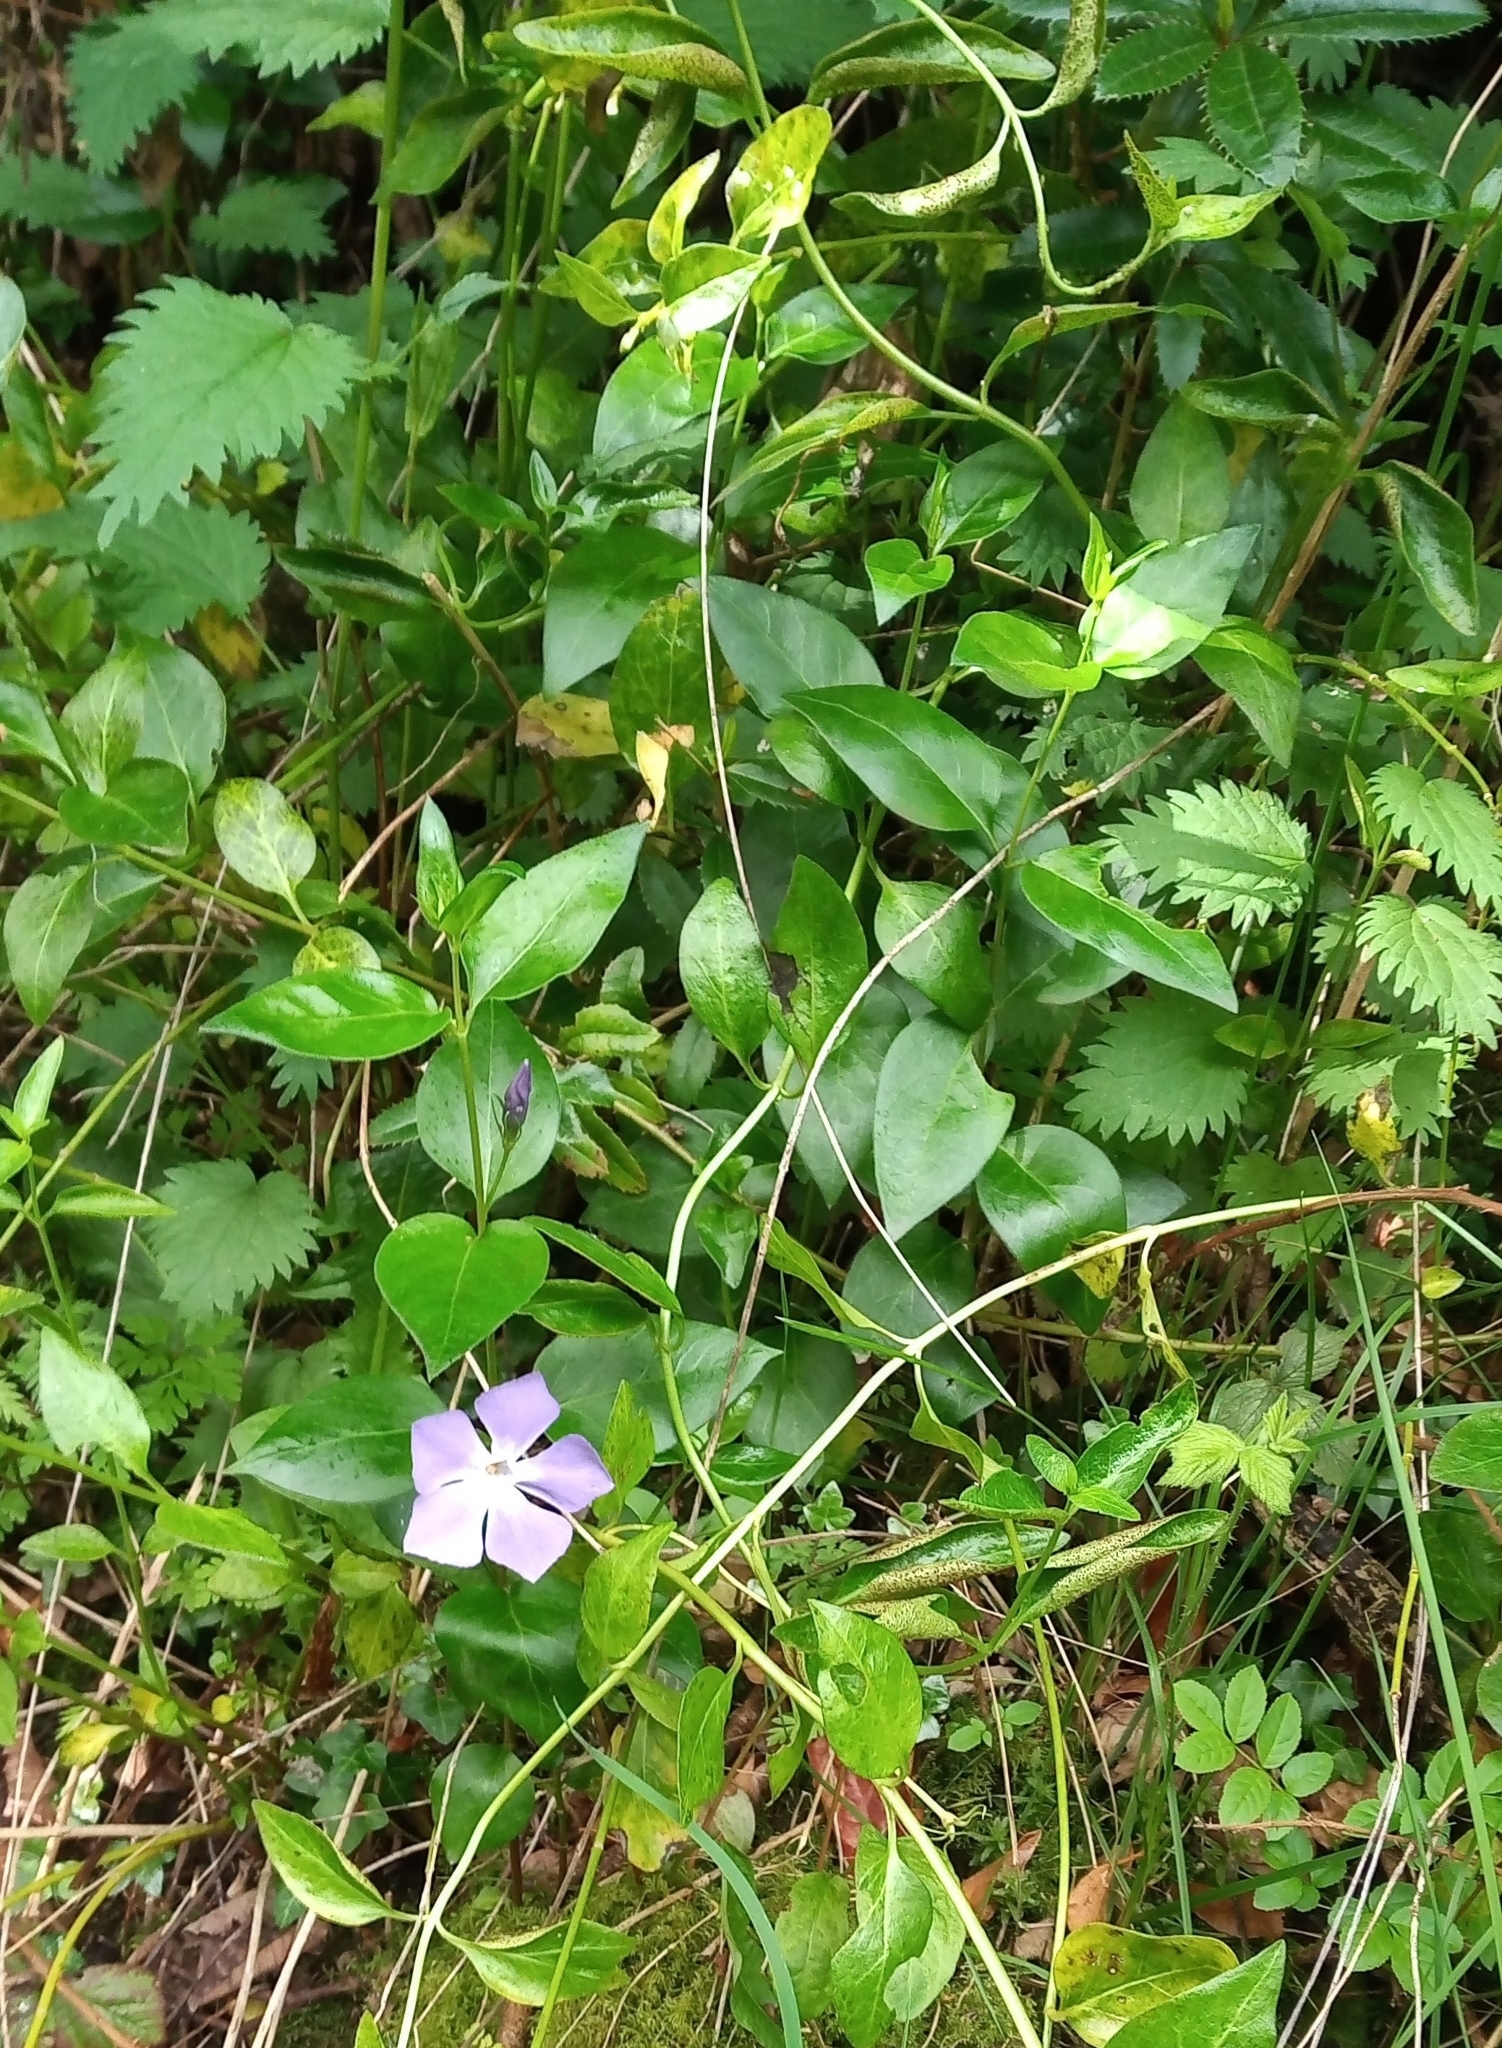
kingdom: Plantae
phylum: Tracheophyta
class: Magnoliopsida
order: Gentianales
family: Apocynaceae
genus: Vinca
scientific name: Vinca major
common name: Greater periwinkle
